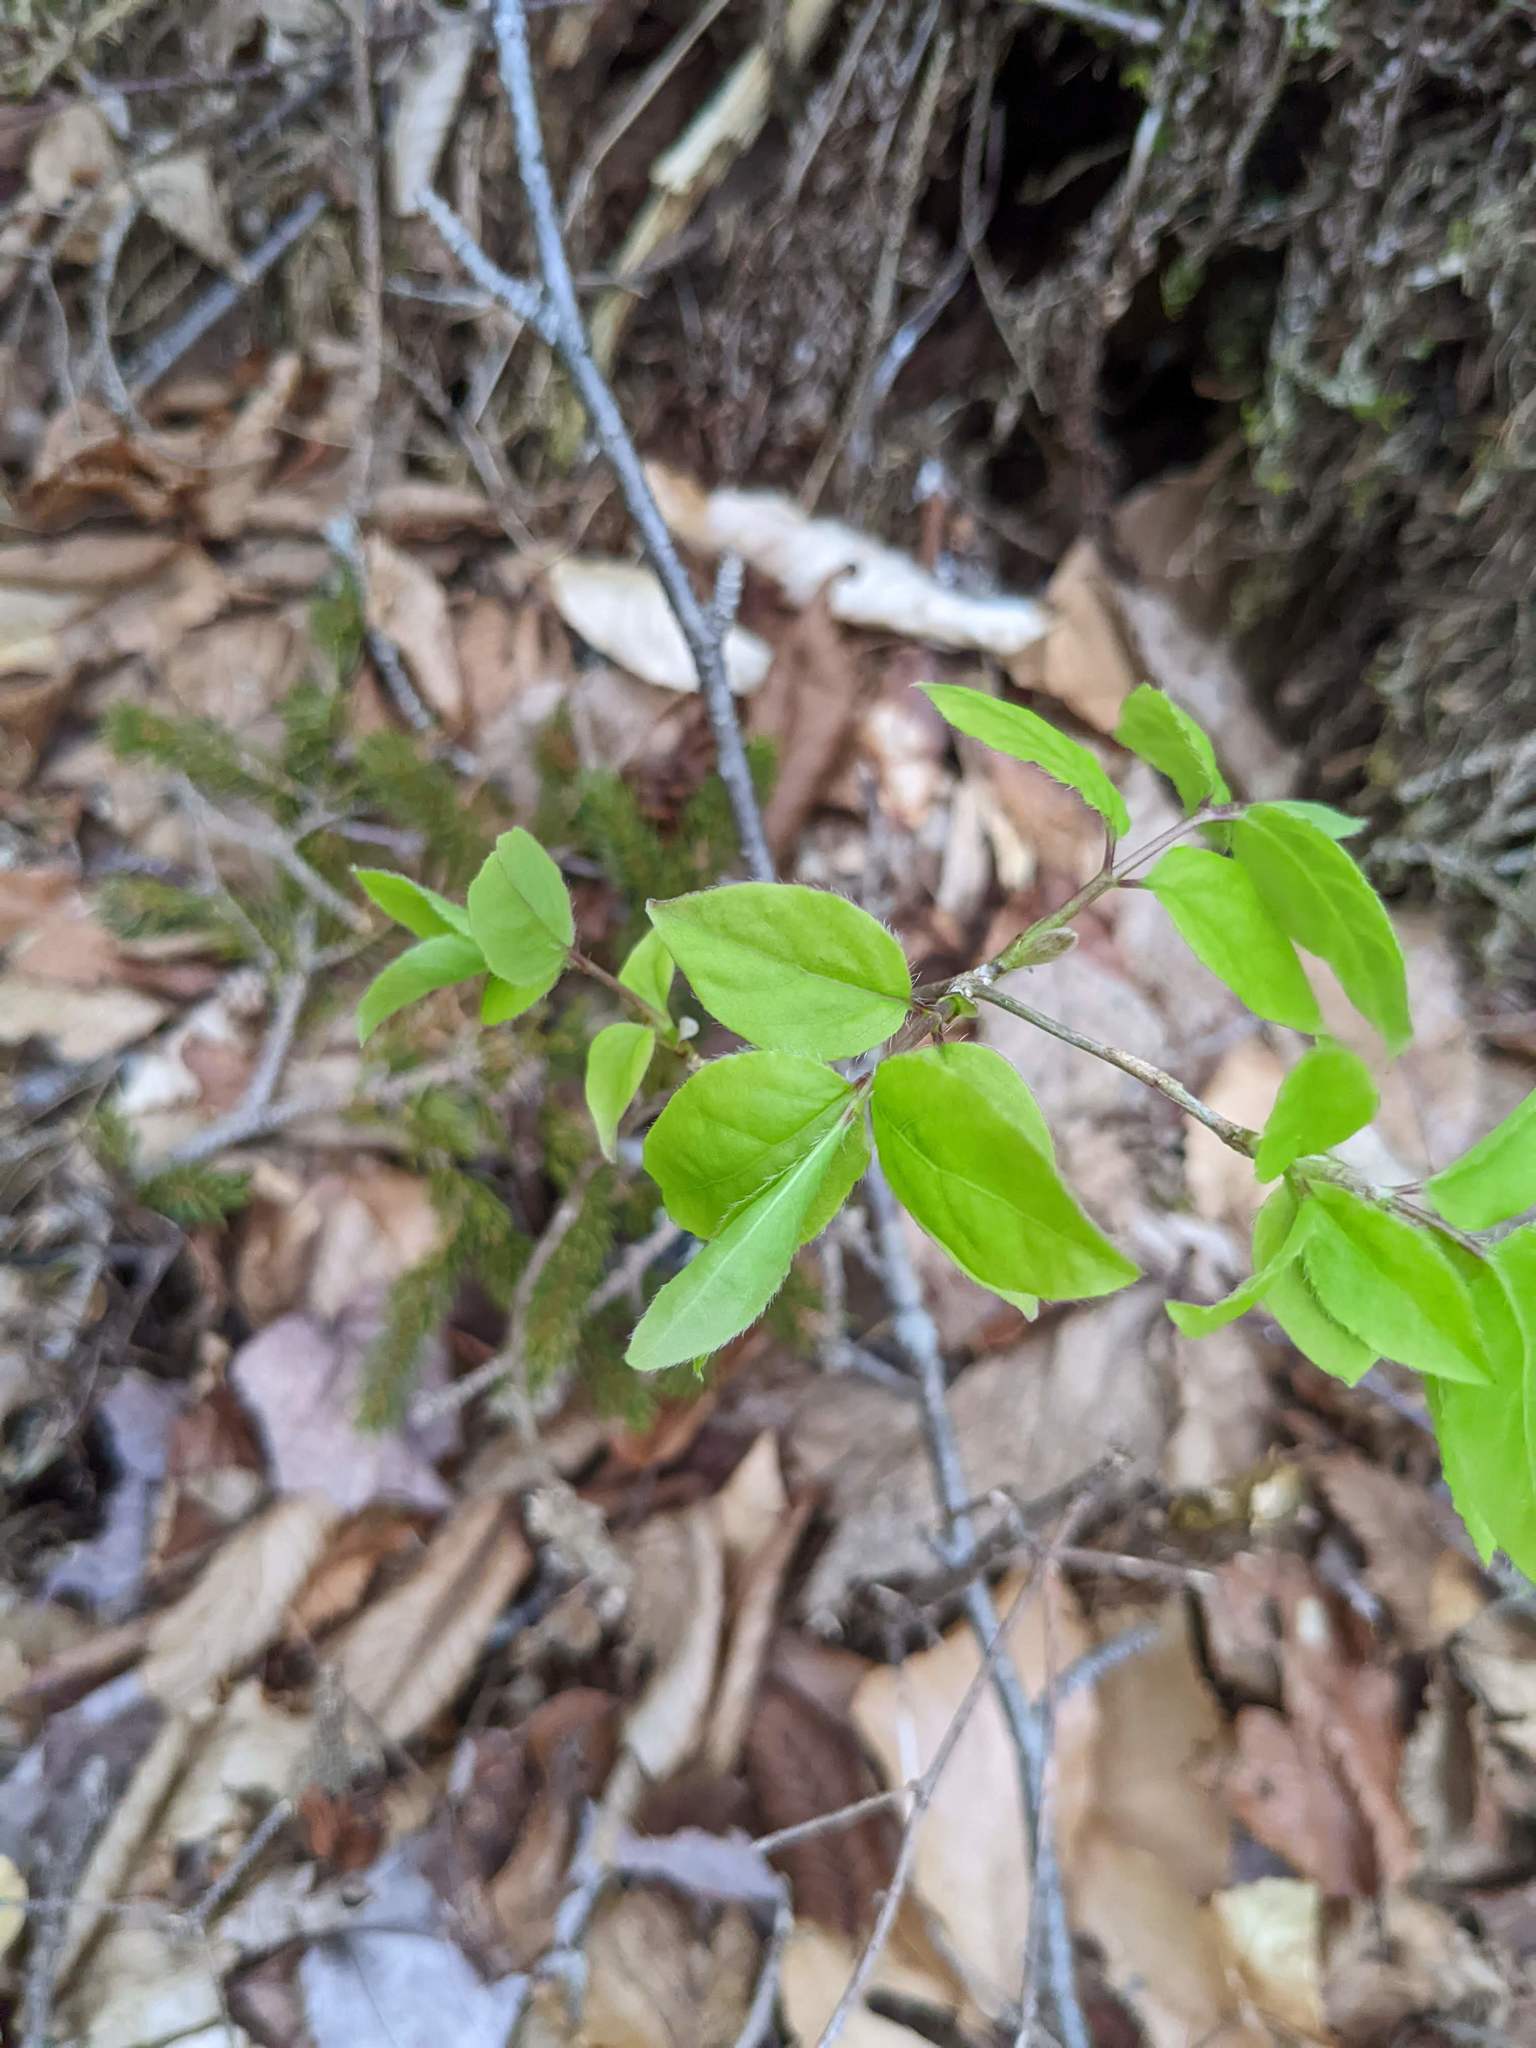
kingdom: Plantae
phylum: Tracheophyta
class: Magnoliopsida
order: Dipsacales
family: Caprifoliaceae
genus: Lonicera
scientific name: Lonicera canadensis
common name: American fly-honeysuckle
